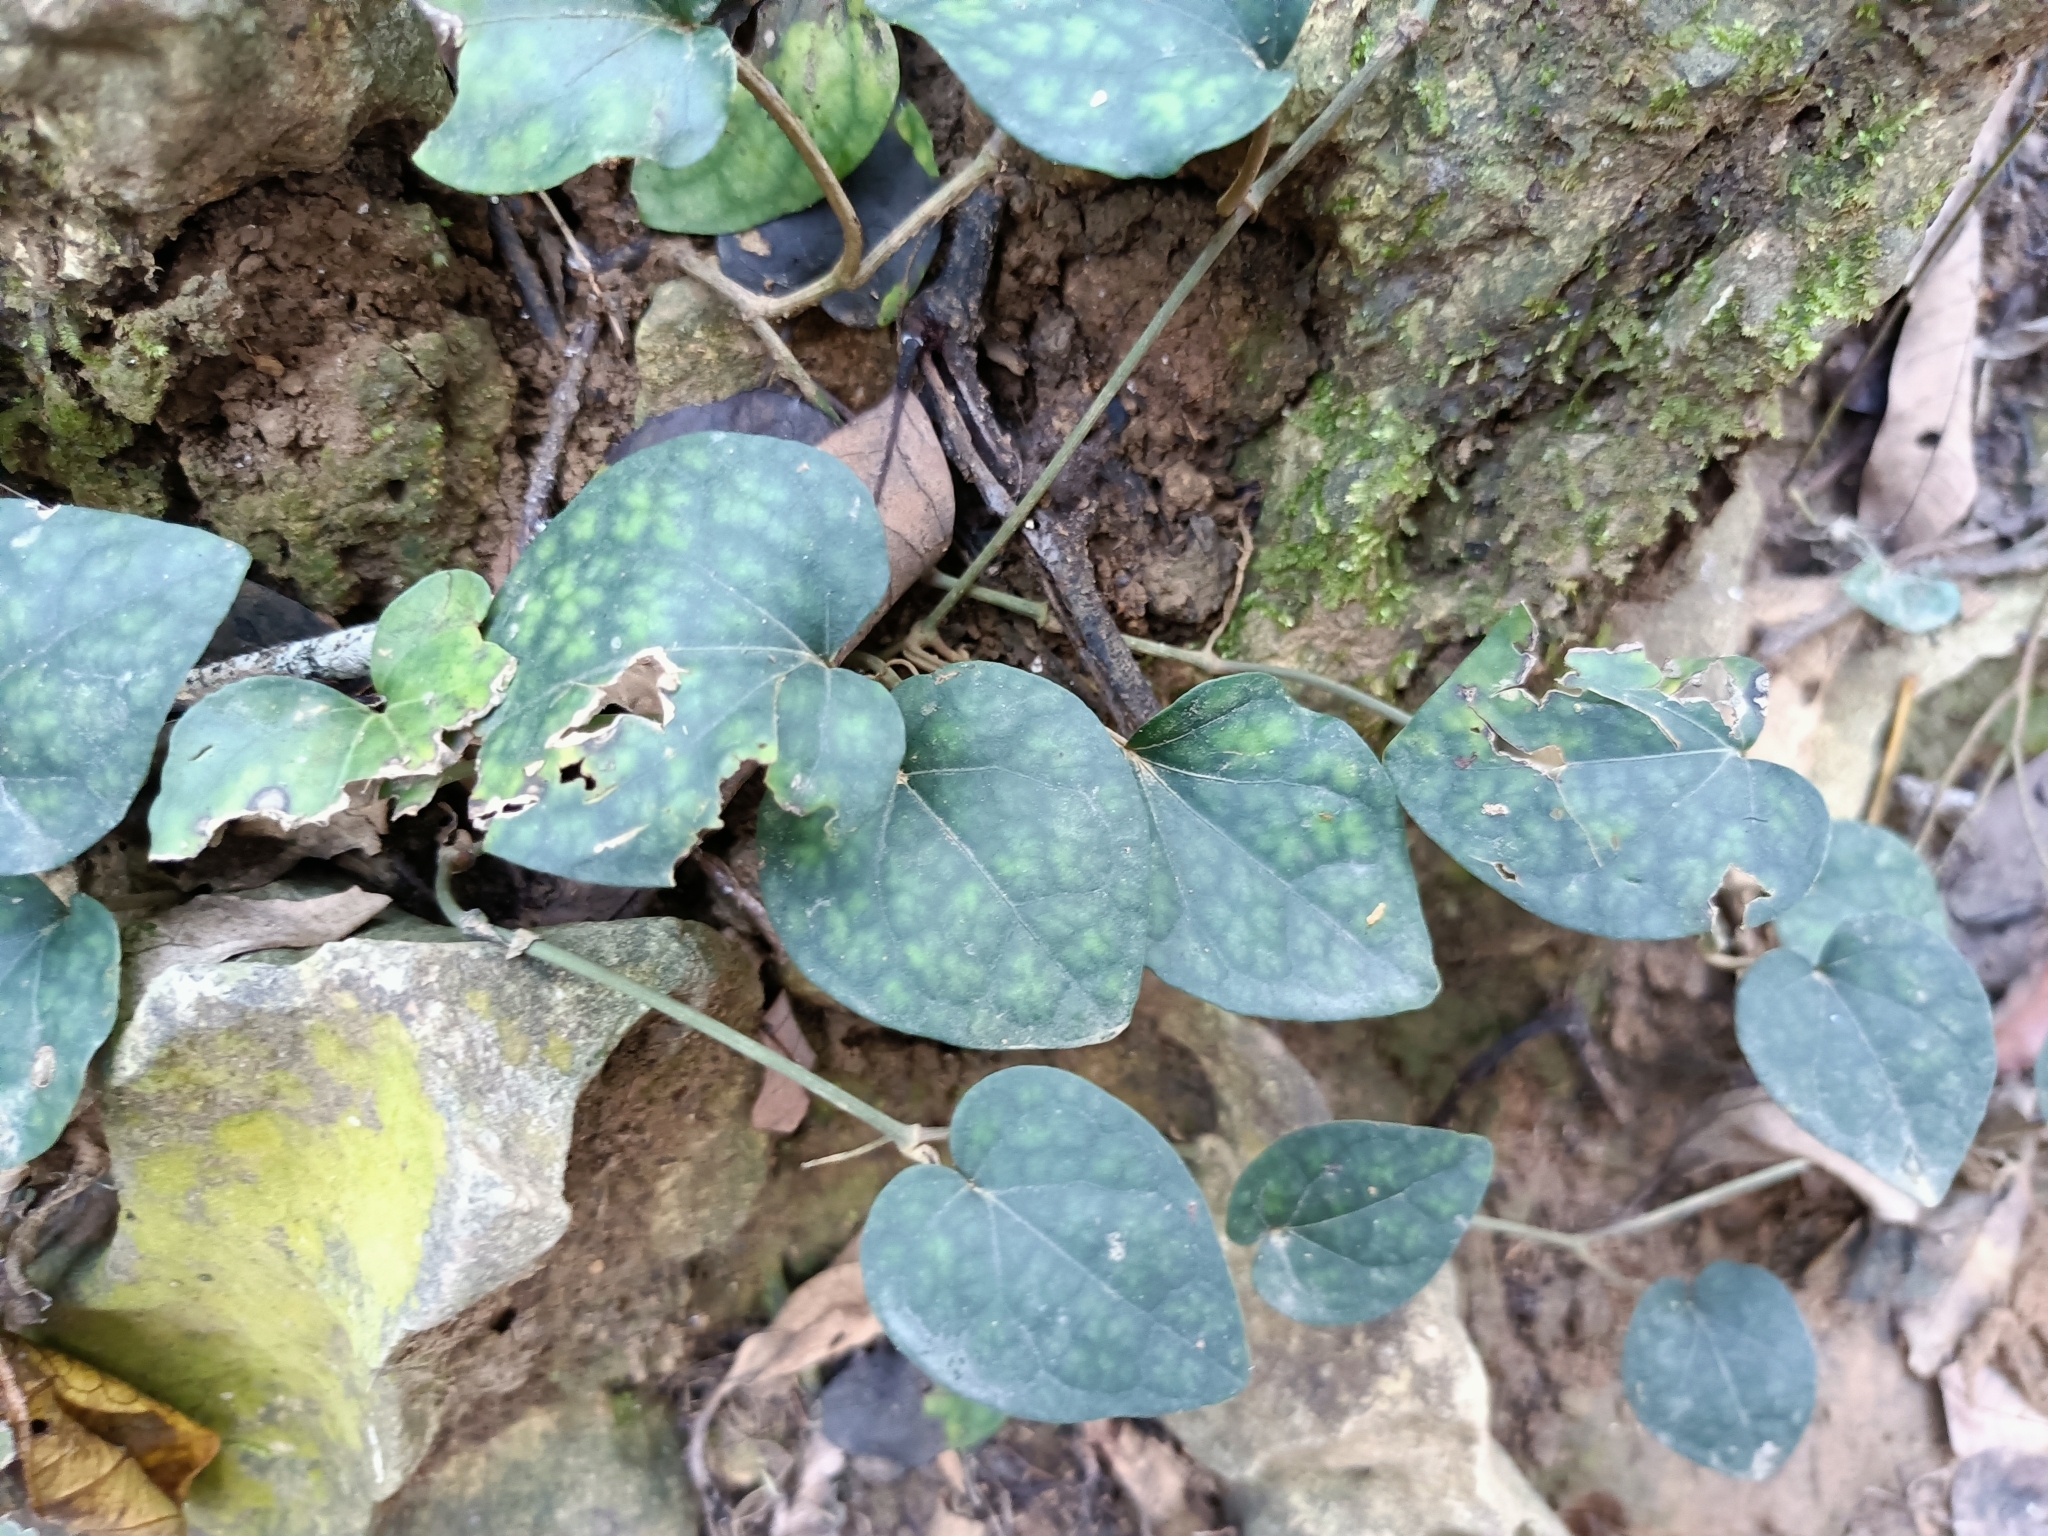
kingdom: Plantae
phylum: Tracheophyta
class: Magnoliopsida
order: Piperales
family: Piperaceae
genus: Piper
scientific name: Piper kadsura
